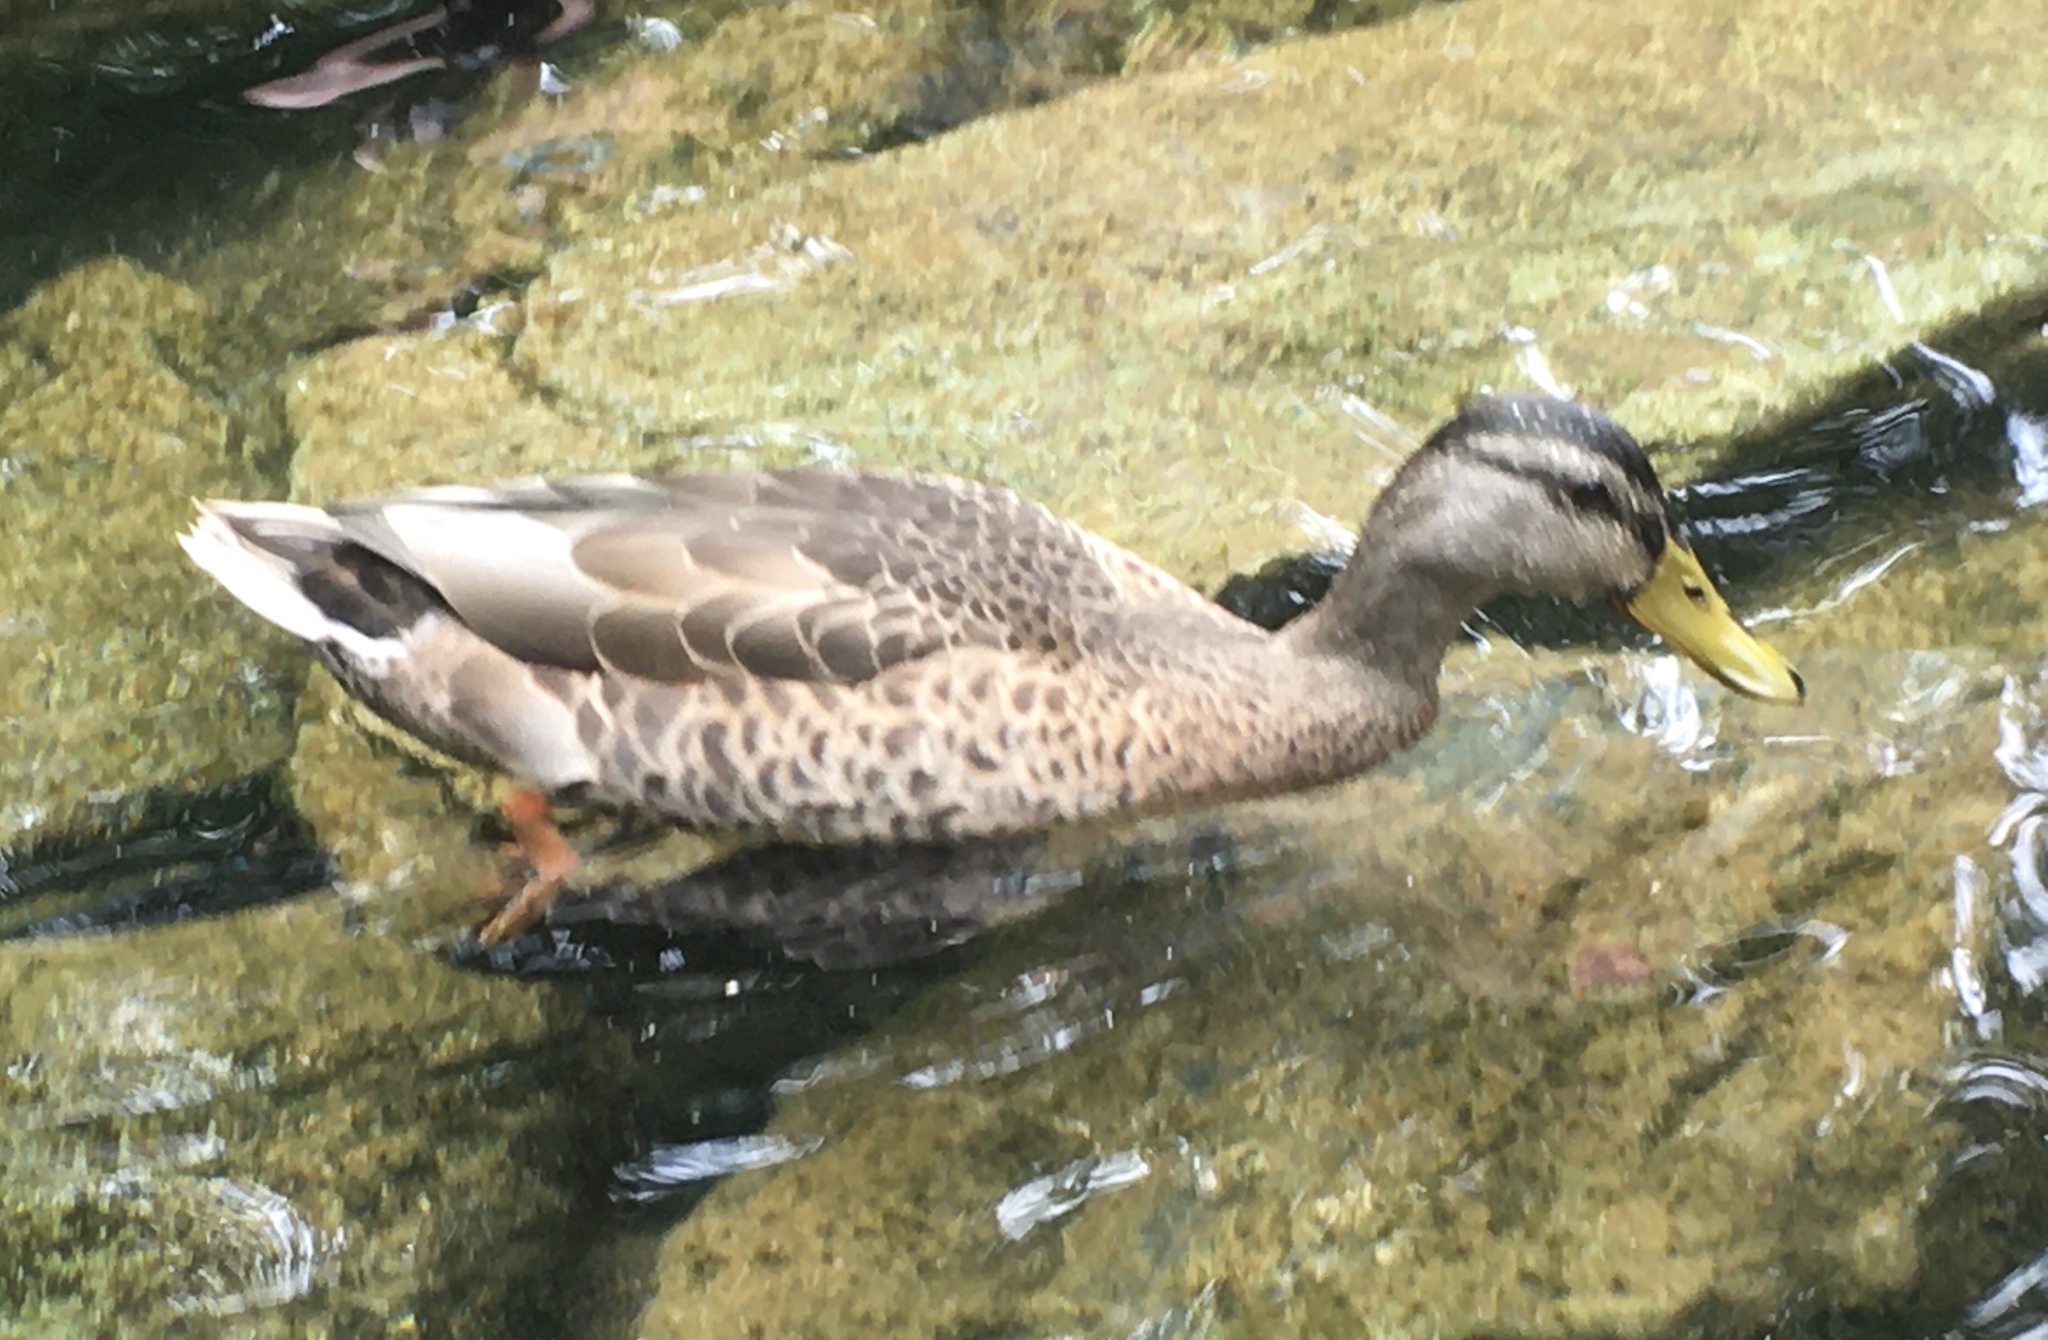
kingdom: Animalia
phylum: Chordata
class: Aves
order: Anseriformes
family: Anatidae
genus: Anas
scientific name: Anas platyrhynchos
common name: Mallard
